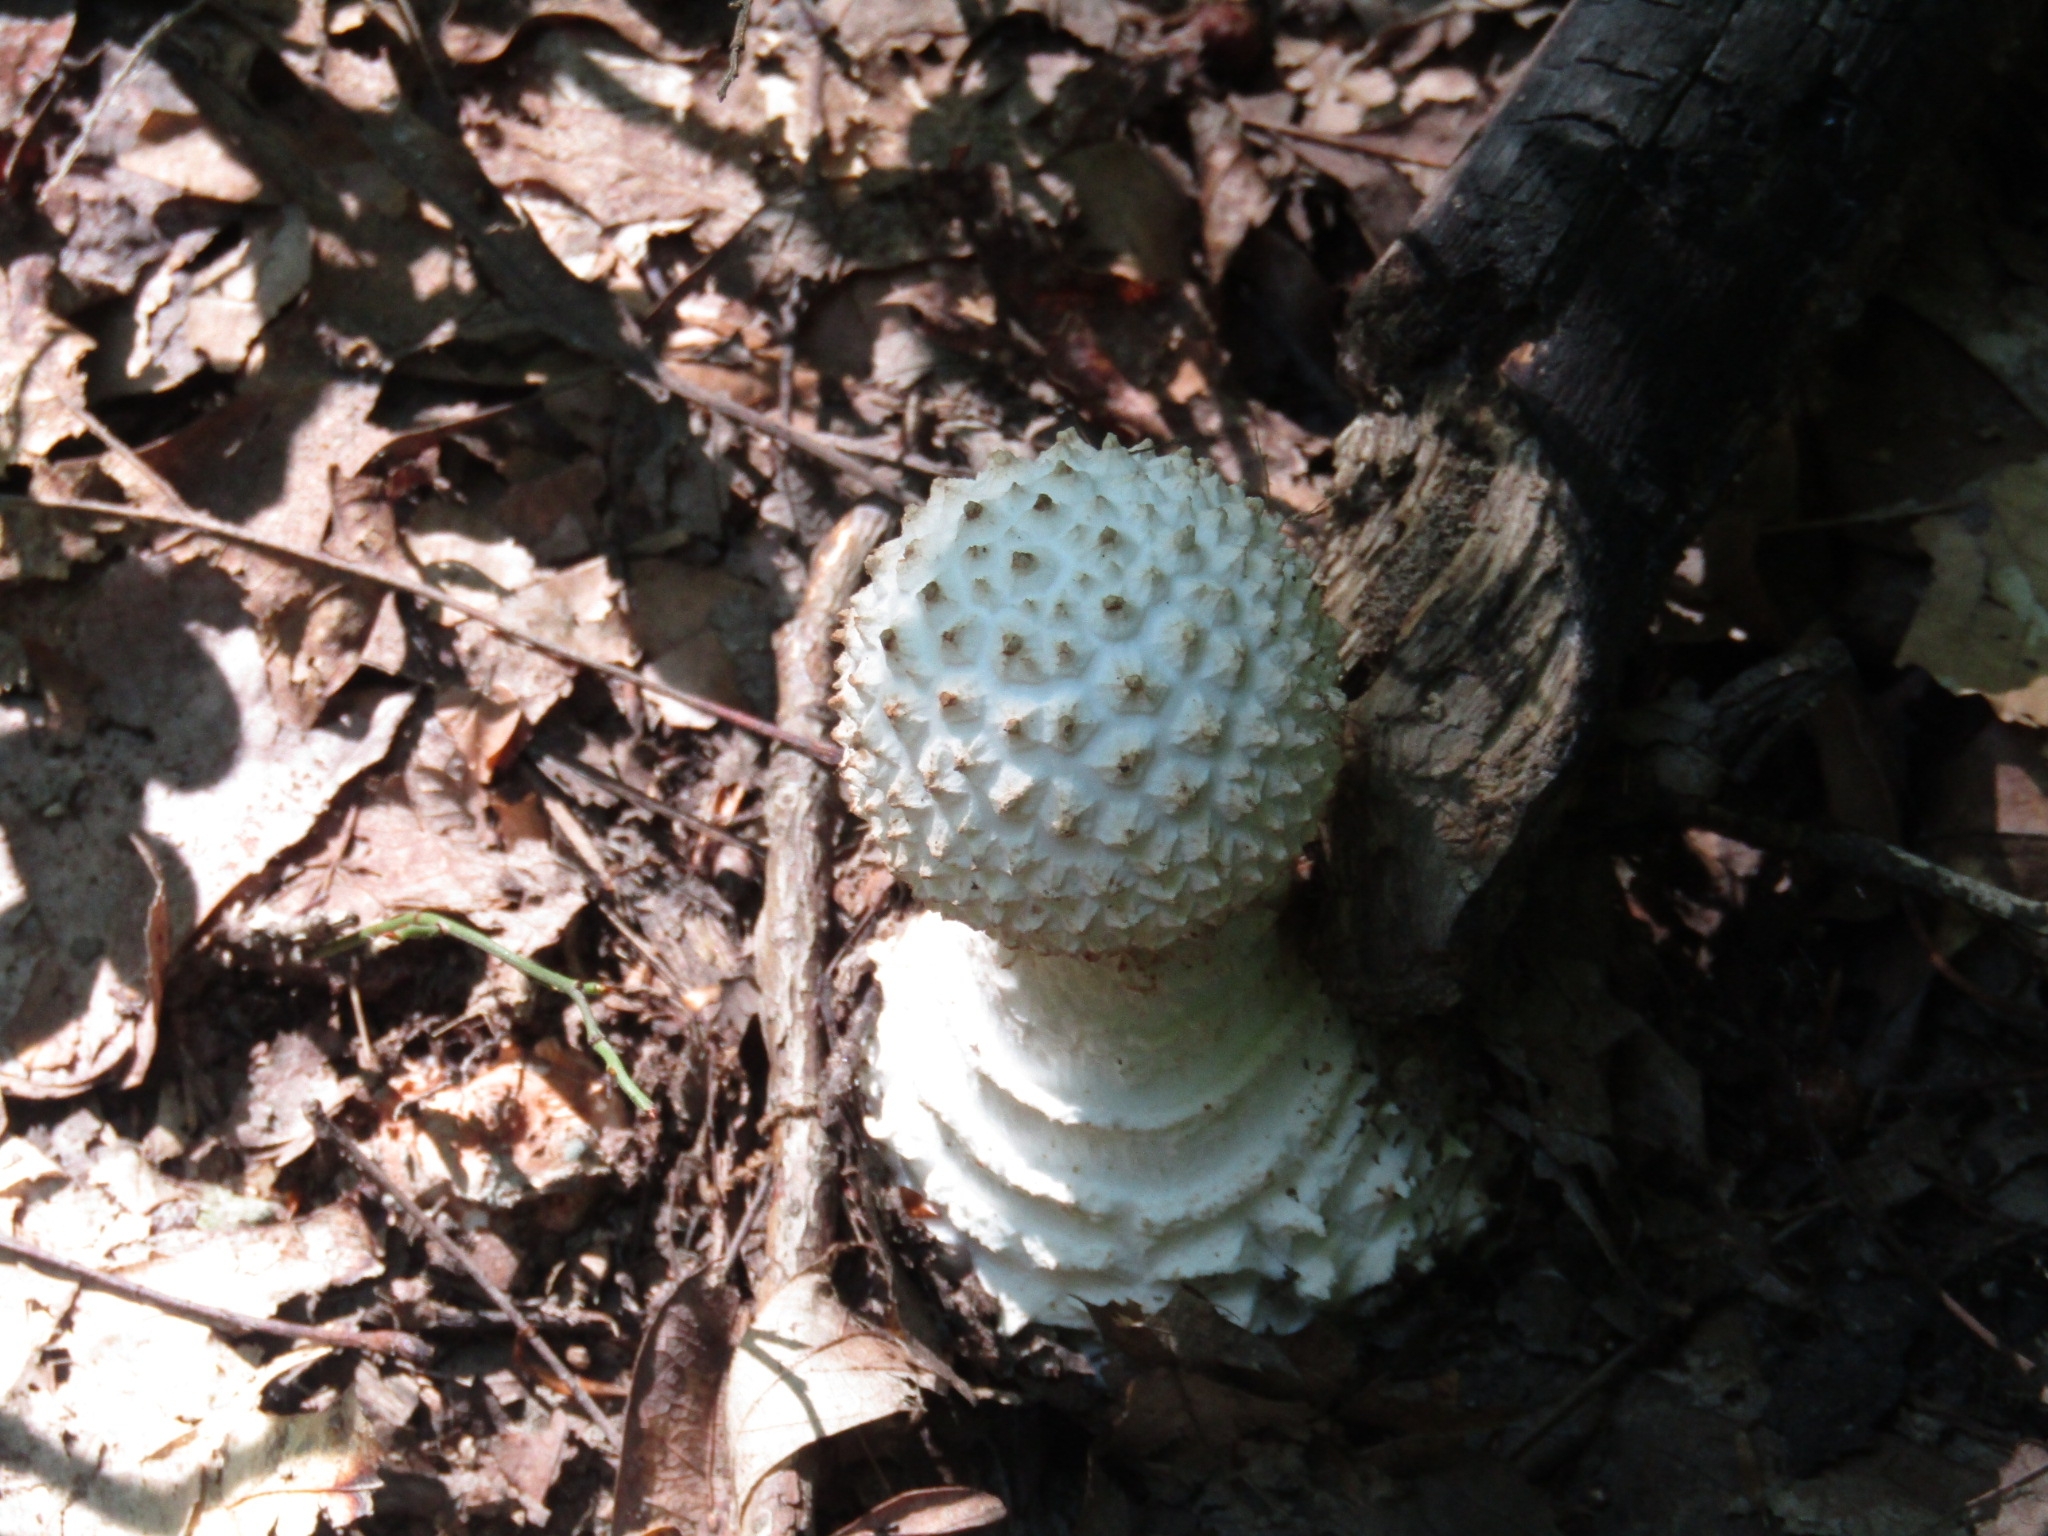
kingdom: Fungi
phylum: Basidiomycota
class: Agaricomycetes
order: Agaricales
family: Amanitaceae
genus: Amanita
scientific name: Amanita cokeri
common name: Coker's amanita
